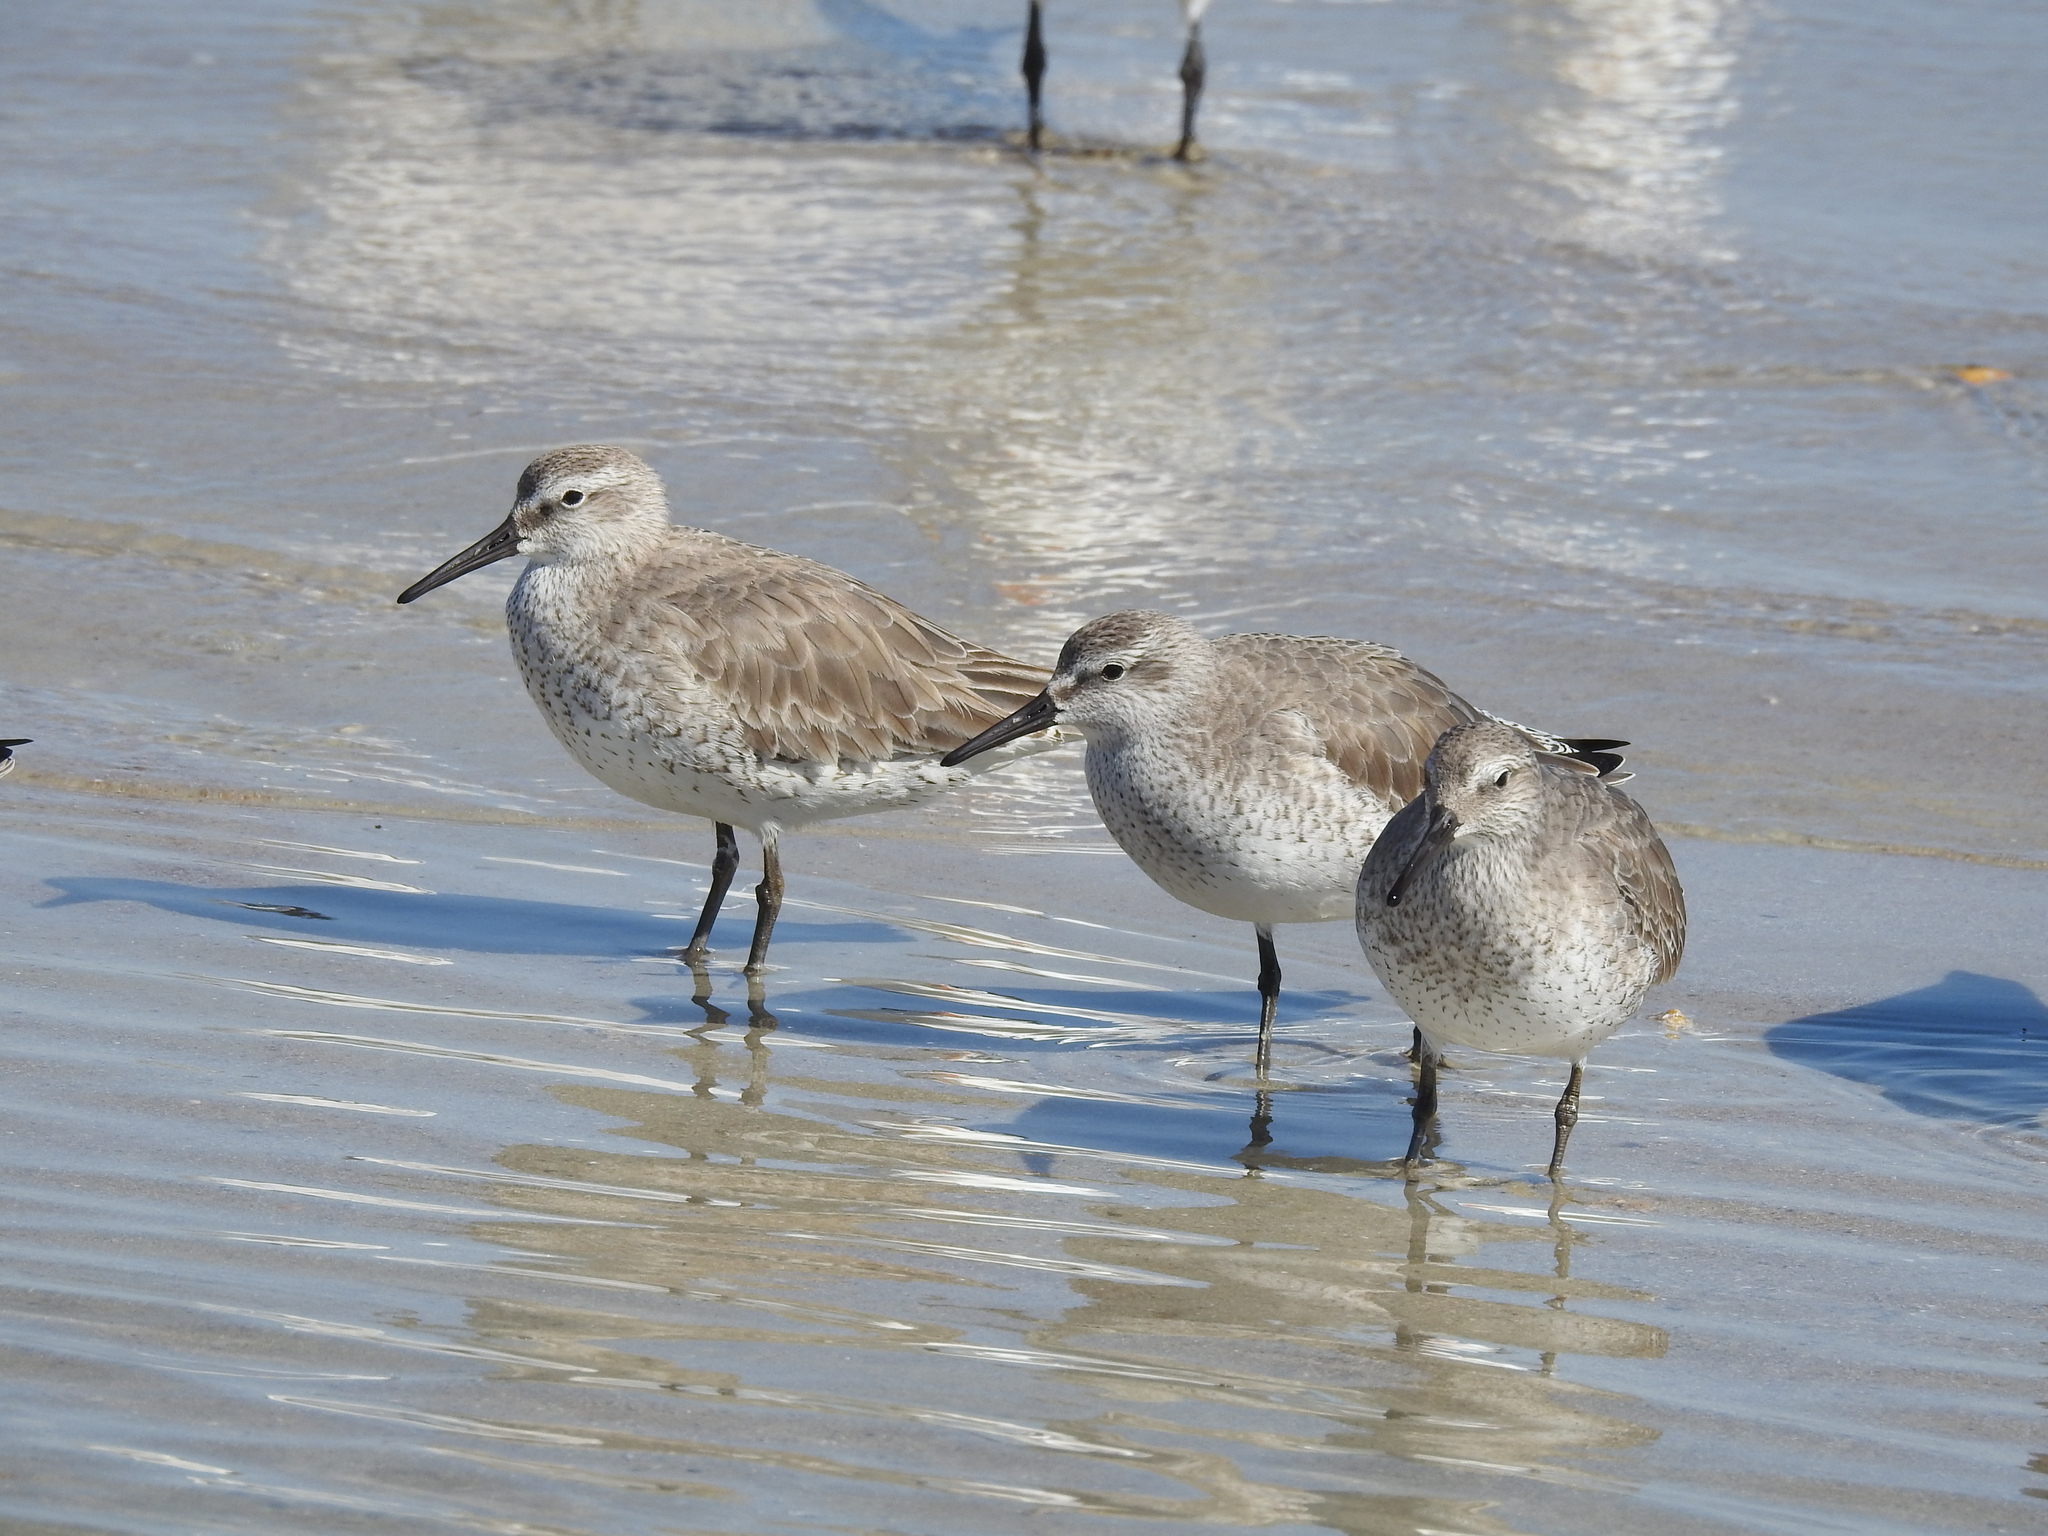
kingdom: Animalia
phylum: Chordata
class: Aves
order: Charadriiformes
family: Scolopacidae
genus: Calidris
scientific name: Calidris canutus
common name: Red knot
